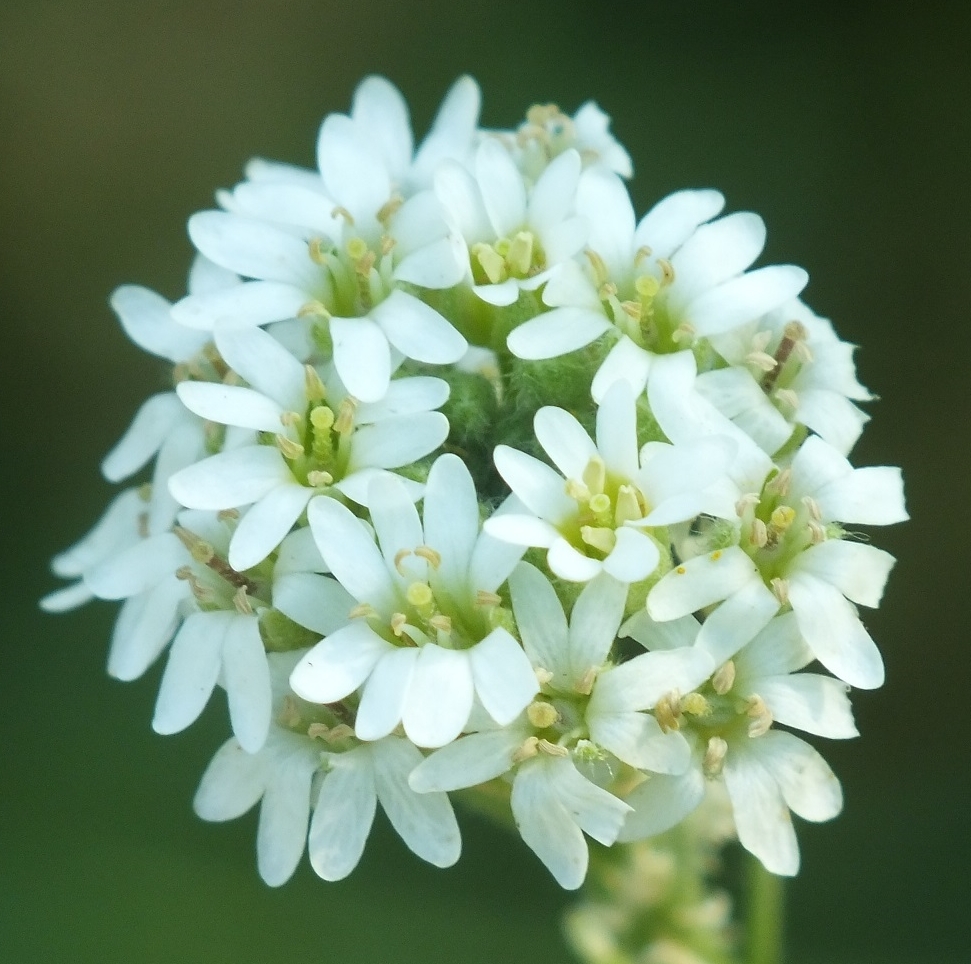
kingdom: Plantae
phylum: Tracheophyta
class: Magnoliopsida
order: Brassicales
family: Brassicaceae
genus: Berteroa
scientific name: Berteroa incana
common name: Hoary alison
